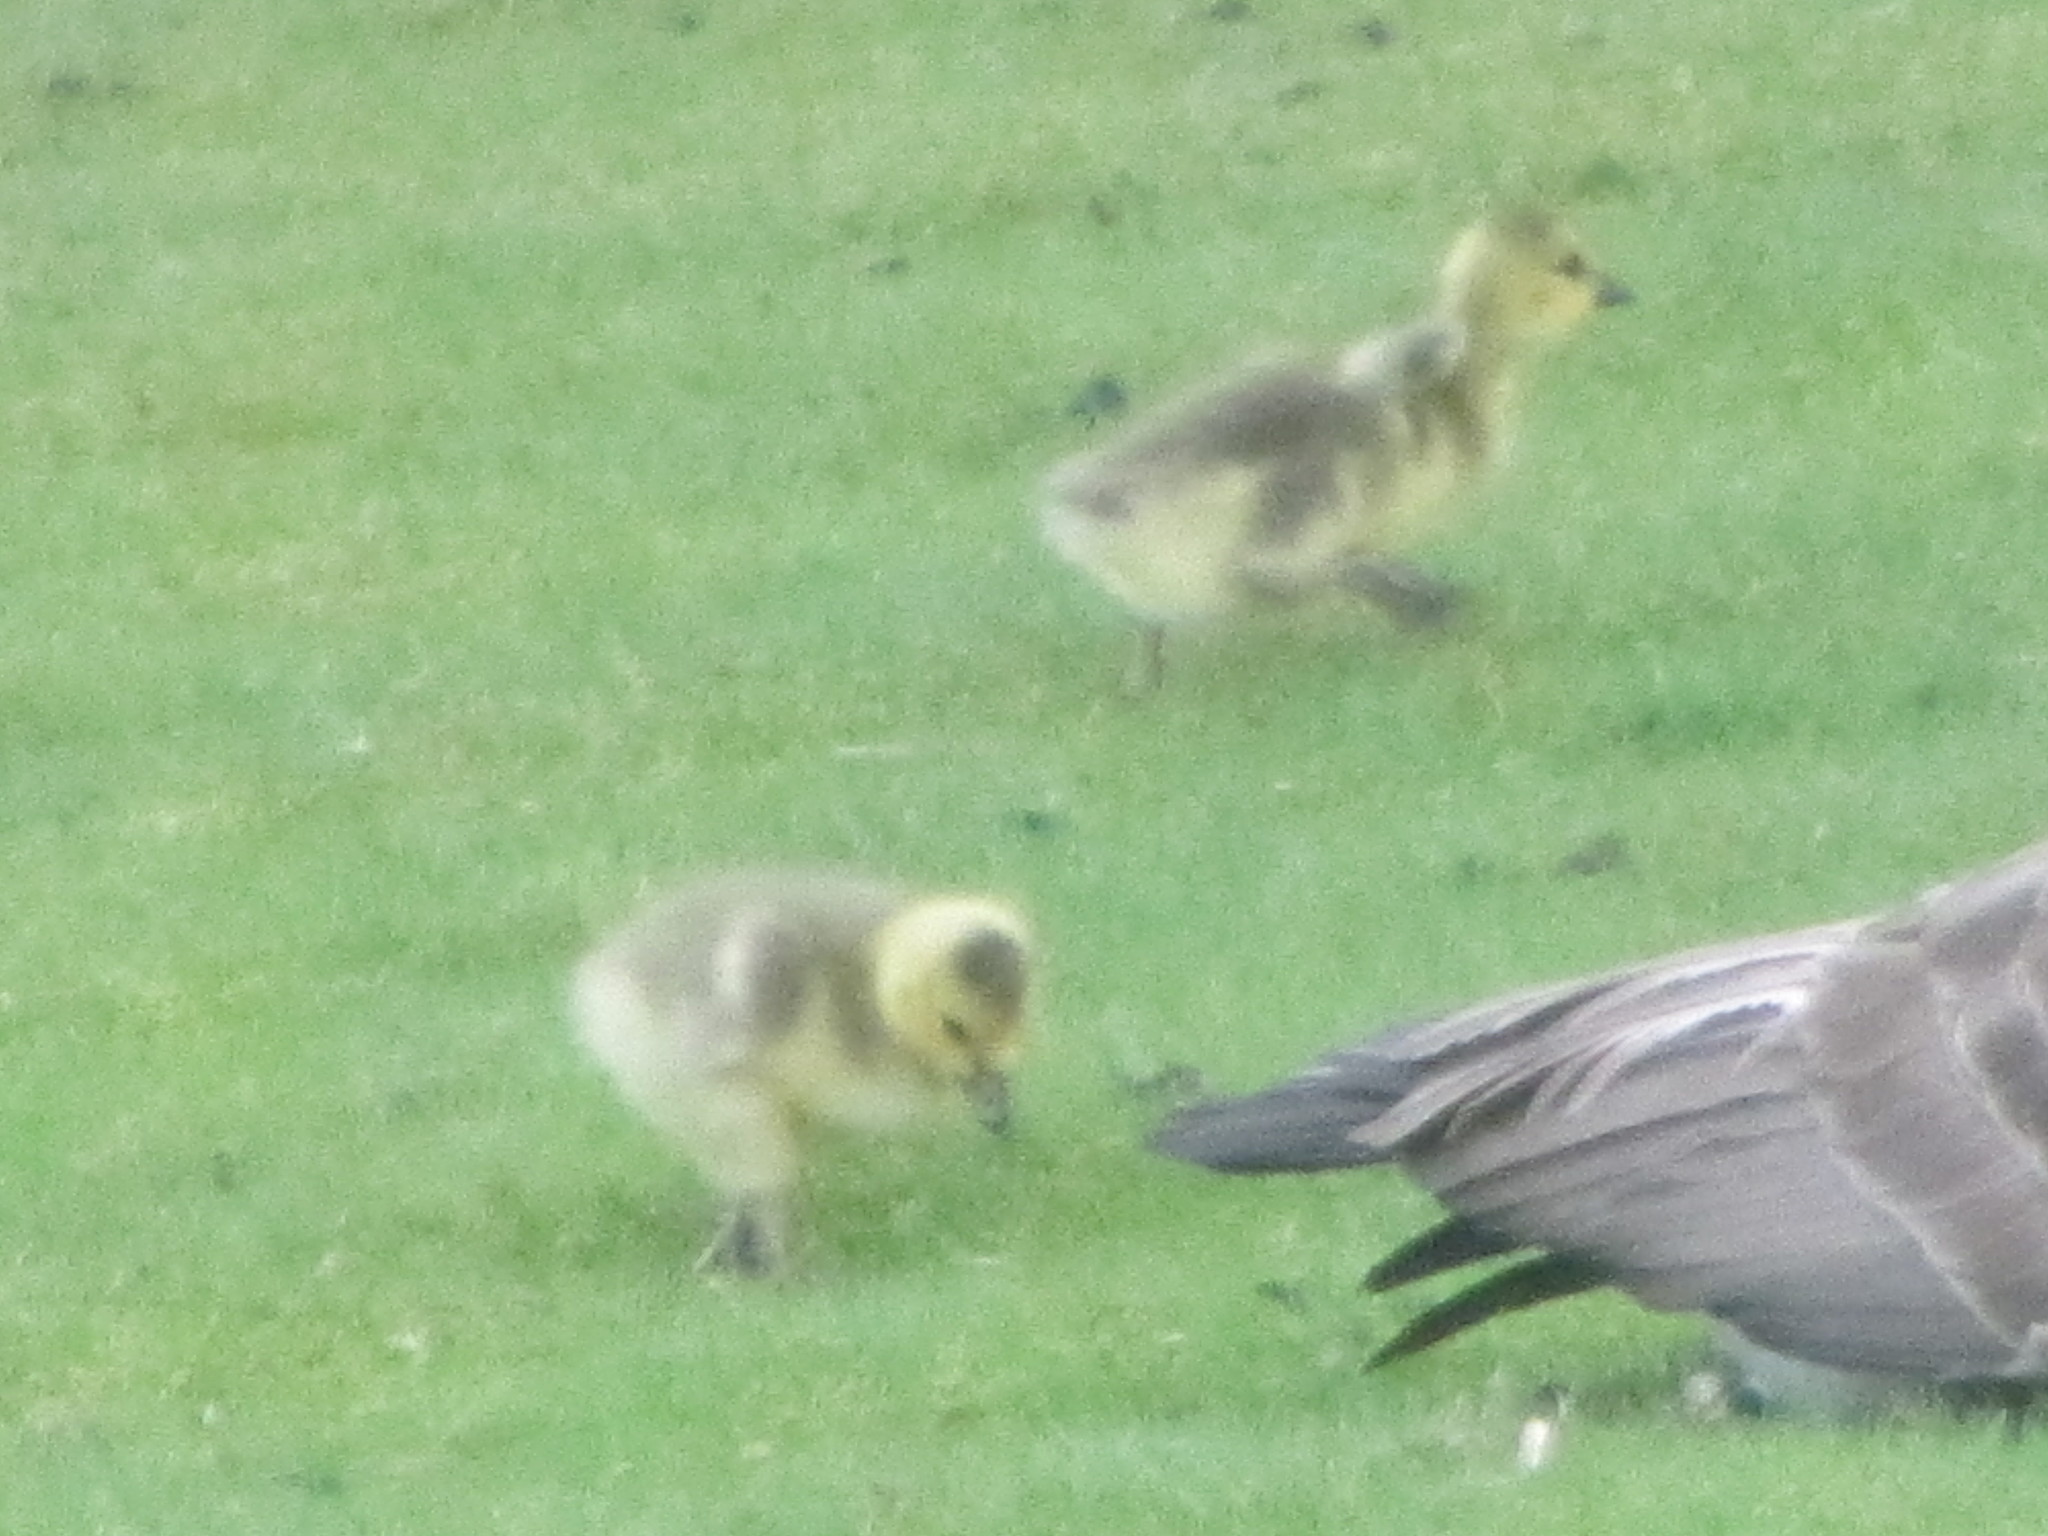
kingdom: Animalia
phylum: Chordata
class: Aves
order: Anseriformes
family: Anatidae
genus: Branta
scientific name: Branta canadensis
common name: Canada goose
